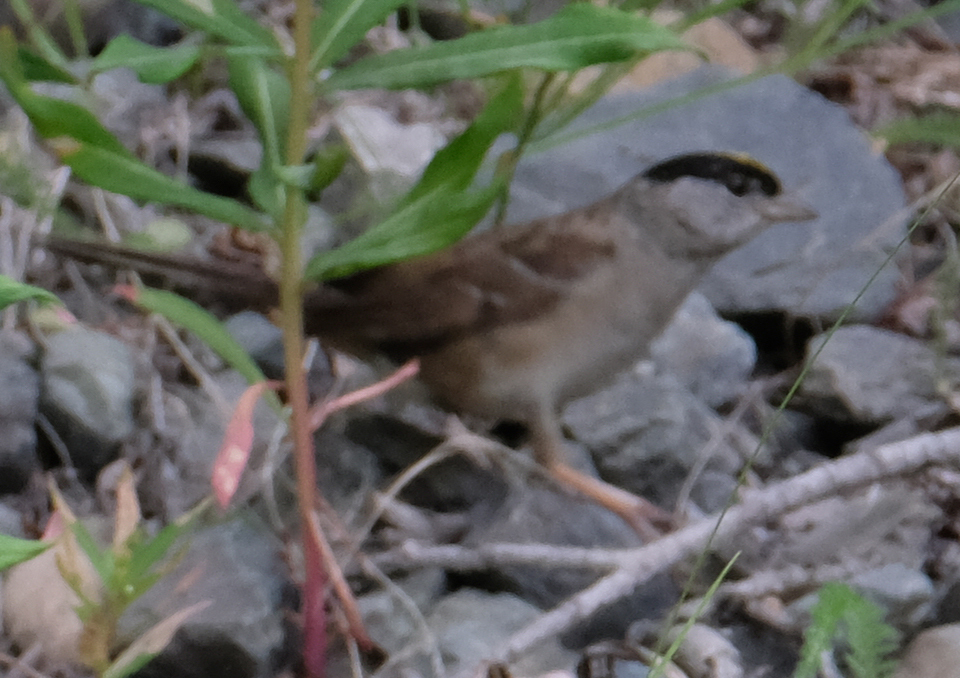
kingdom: Animalia
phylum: Chordata
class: Aves
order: Passeriformes
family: Passerellidae
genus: Zonotrichia
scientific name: Zonotrichia atricapilla
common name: Golden-crowned sparrow
